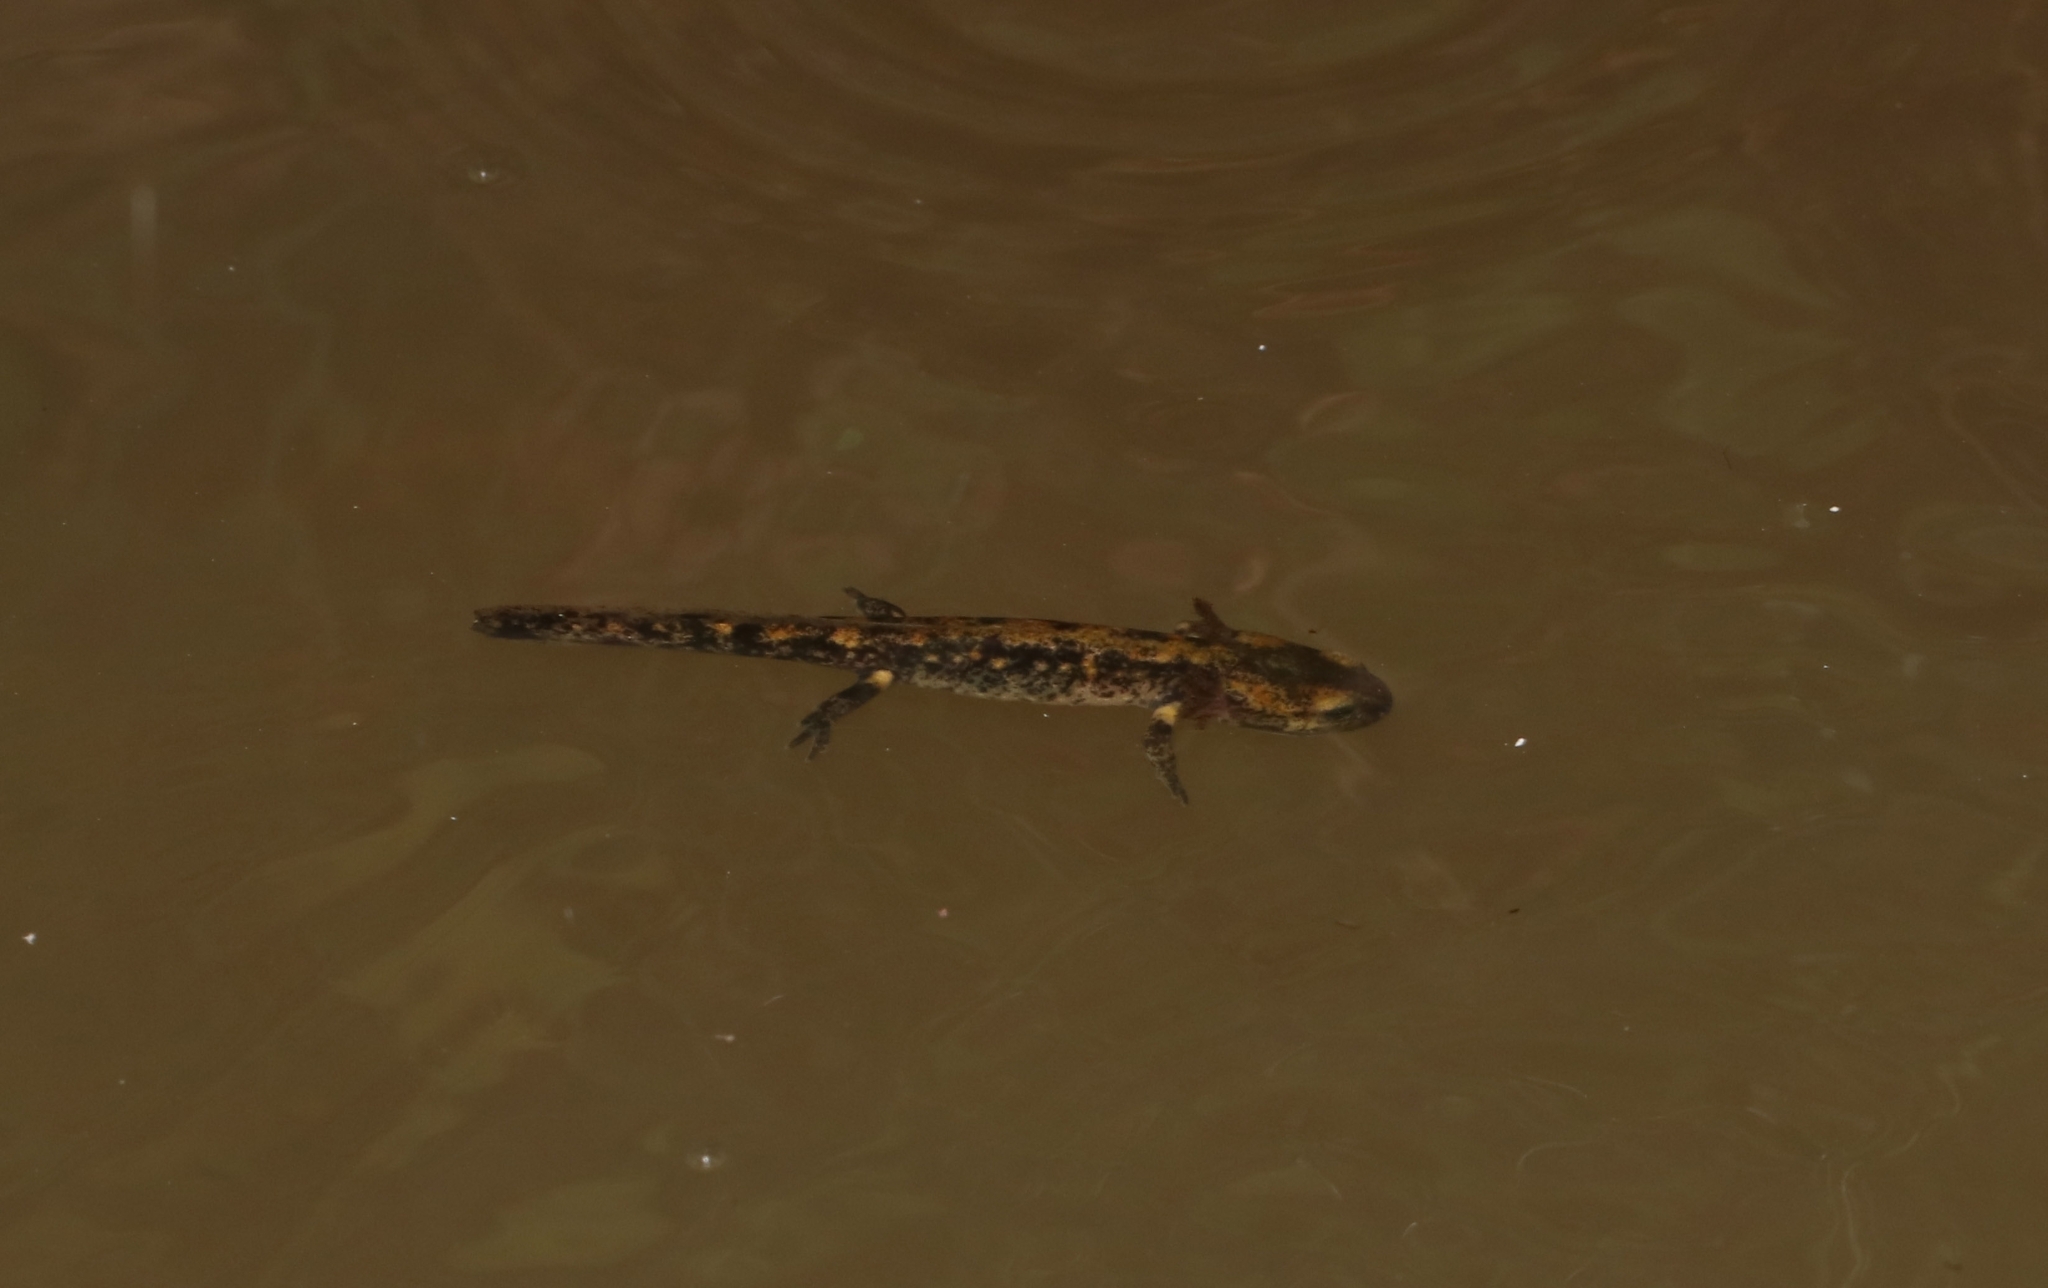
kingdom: Animalia
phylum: Chordata
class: Amphibia
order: Caudata
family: Salamandridae
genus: Salamandra
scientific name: Salamandra salamandra
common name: Fire salamander
